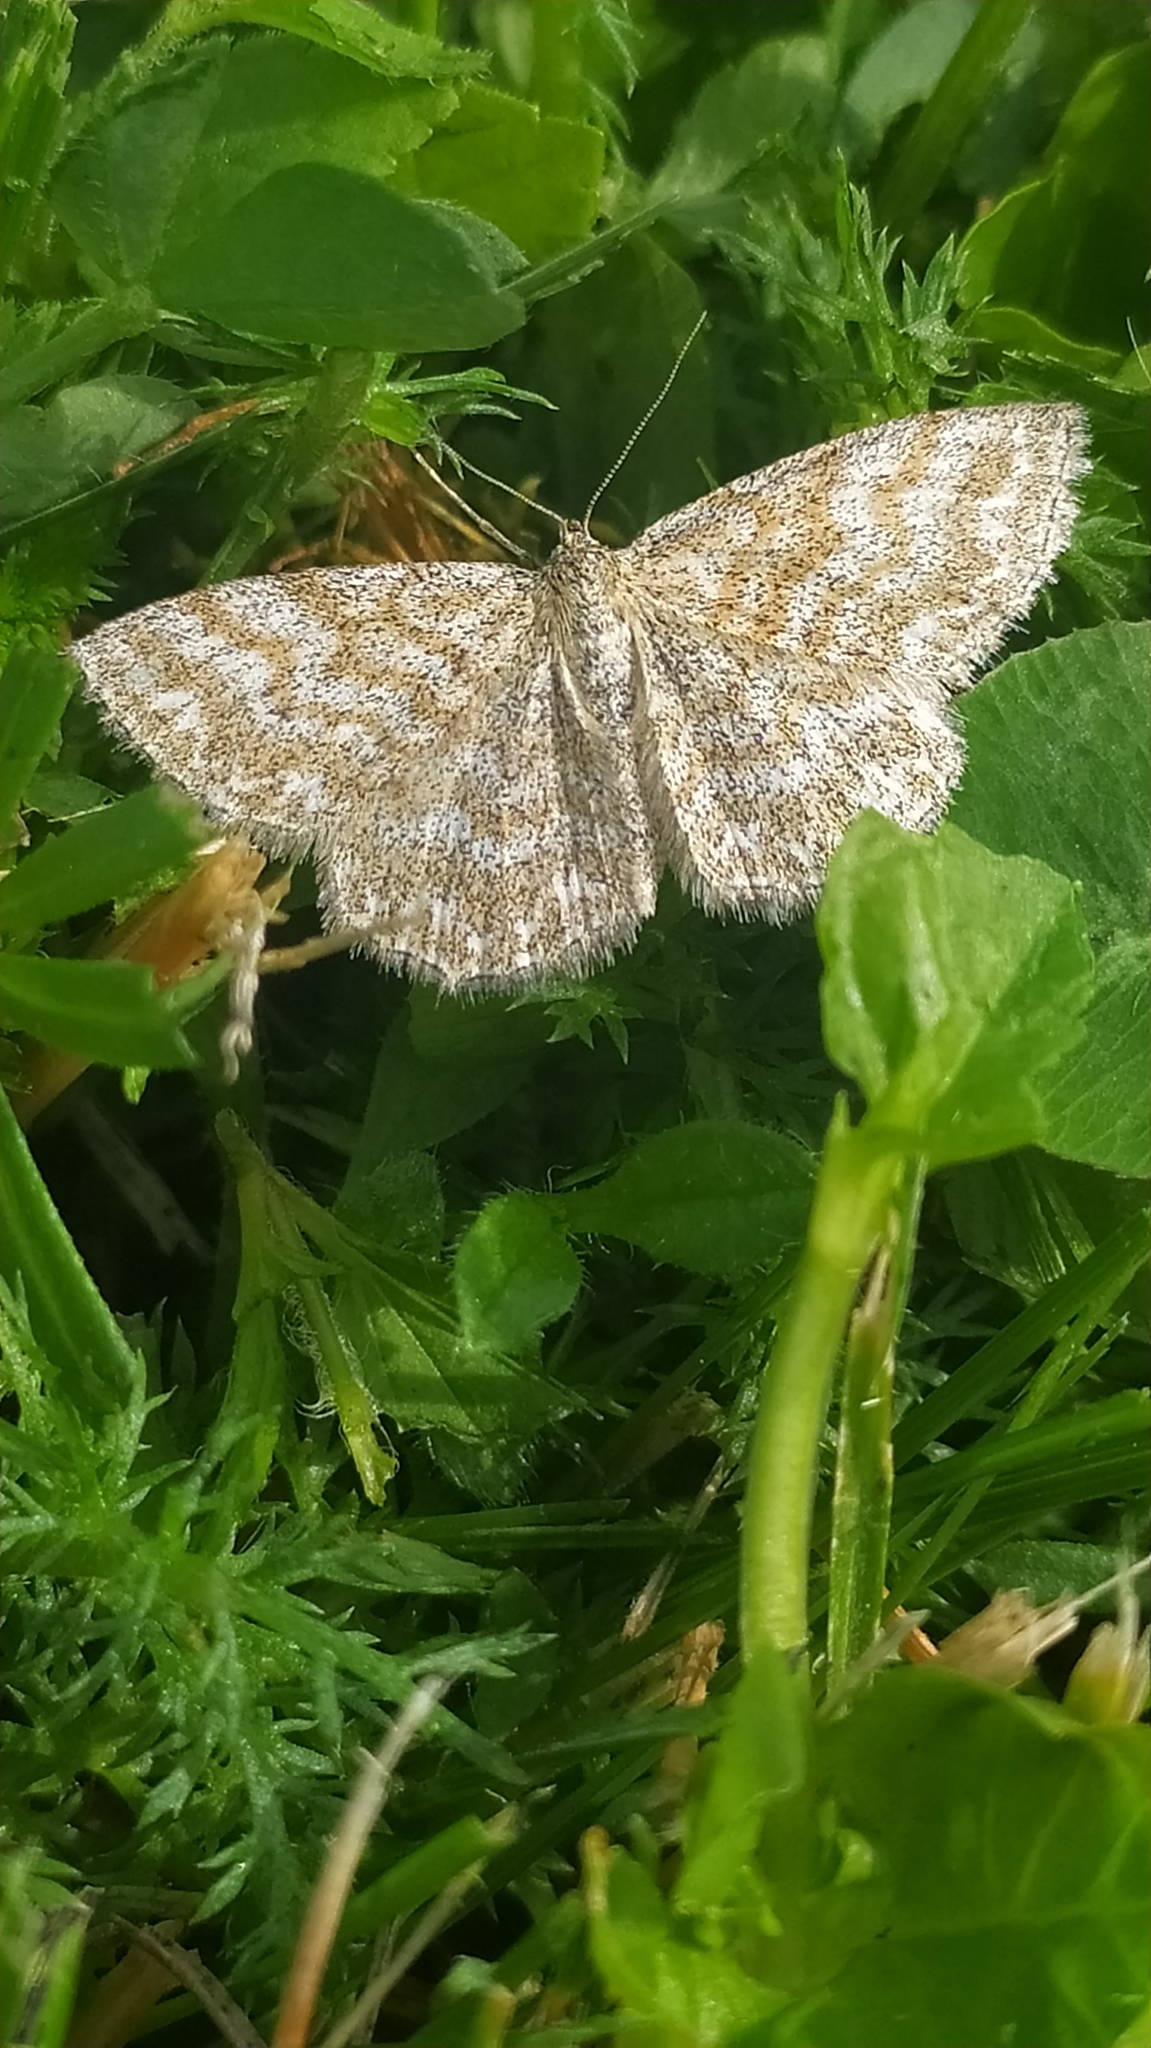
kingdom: Animalia
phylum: Arthropoda
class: Insecta
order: Lepidoptera
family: Geometridae
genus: Scopula
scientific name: Scopula immorata
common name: Lewes wave
